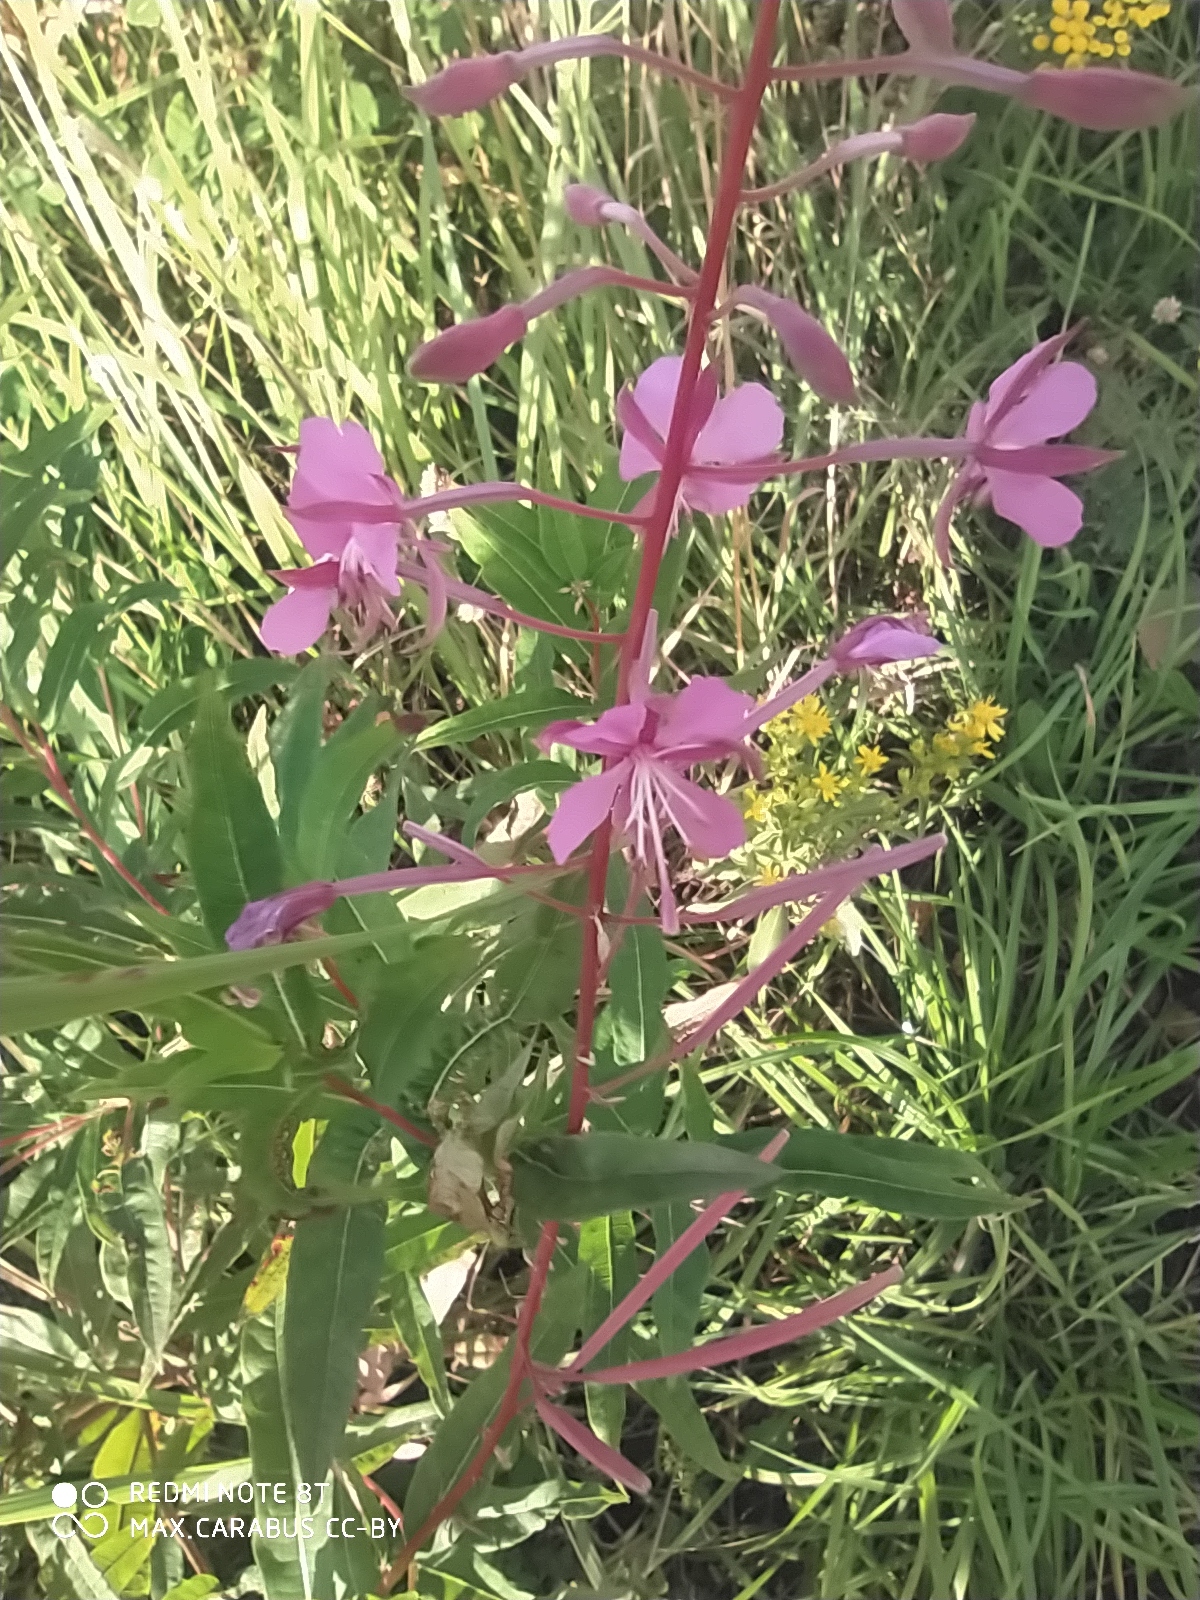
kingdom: Plantae
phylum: Tracheophyta
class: Magnoliopsida
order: Myrtales
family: Onagraceae
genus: Chamaenerion
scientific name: Chamaenerion angustifolium
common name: Fireweed
